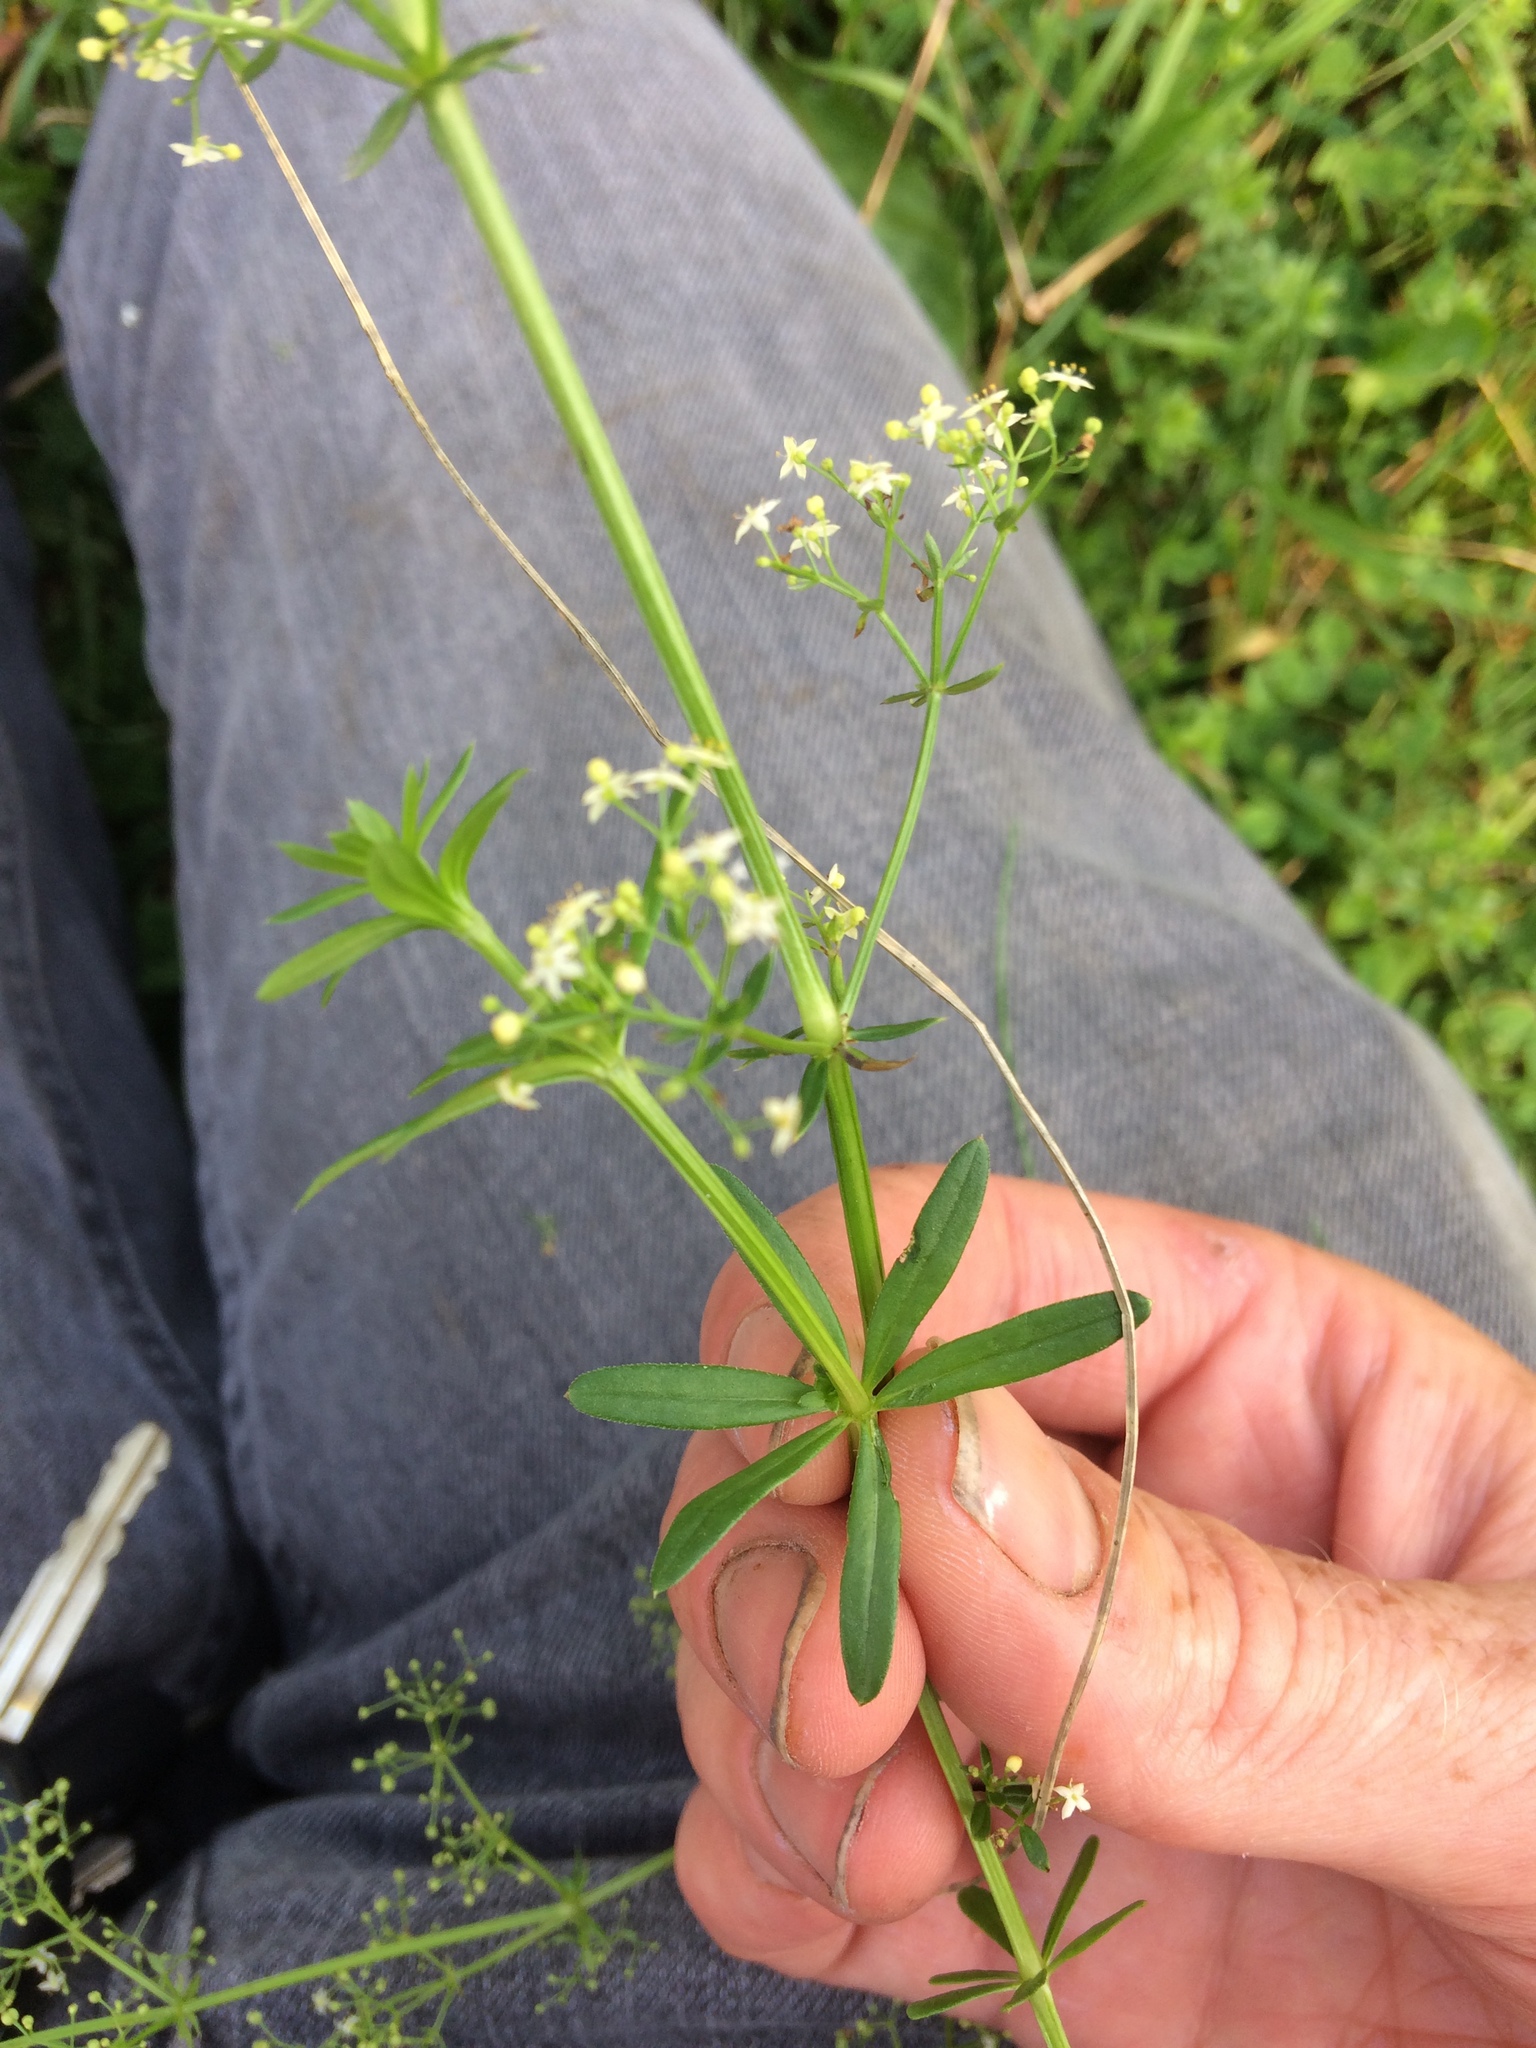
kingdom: Plantae
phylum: Tracheophyta
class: Magnoliopsida
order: Gentianales
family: Rubiaceae
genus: Galium
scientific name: Galium mollugo
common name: Hedge bedstraw
